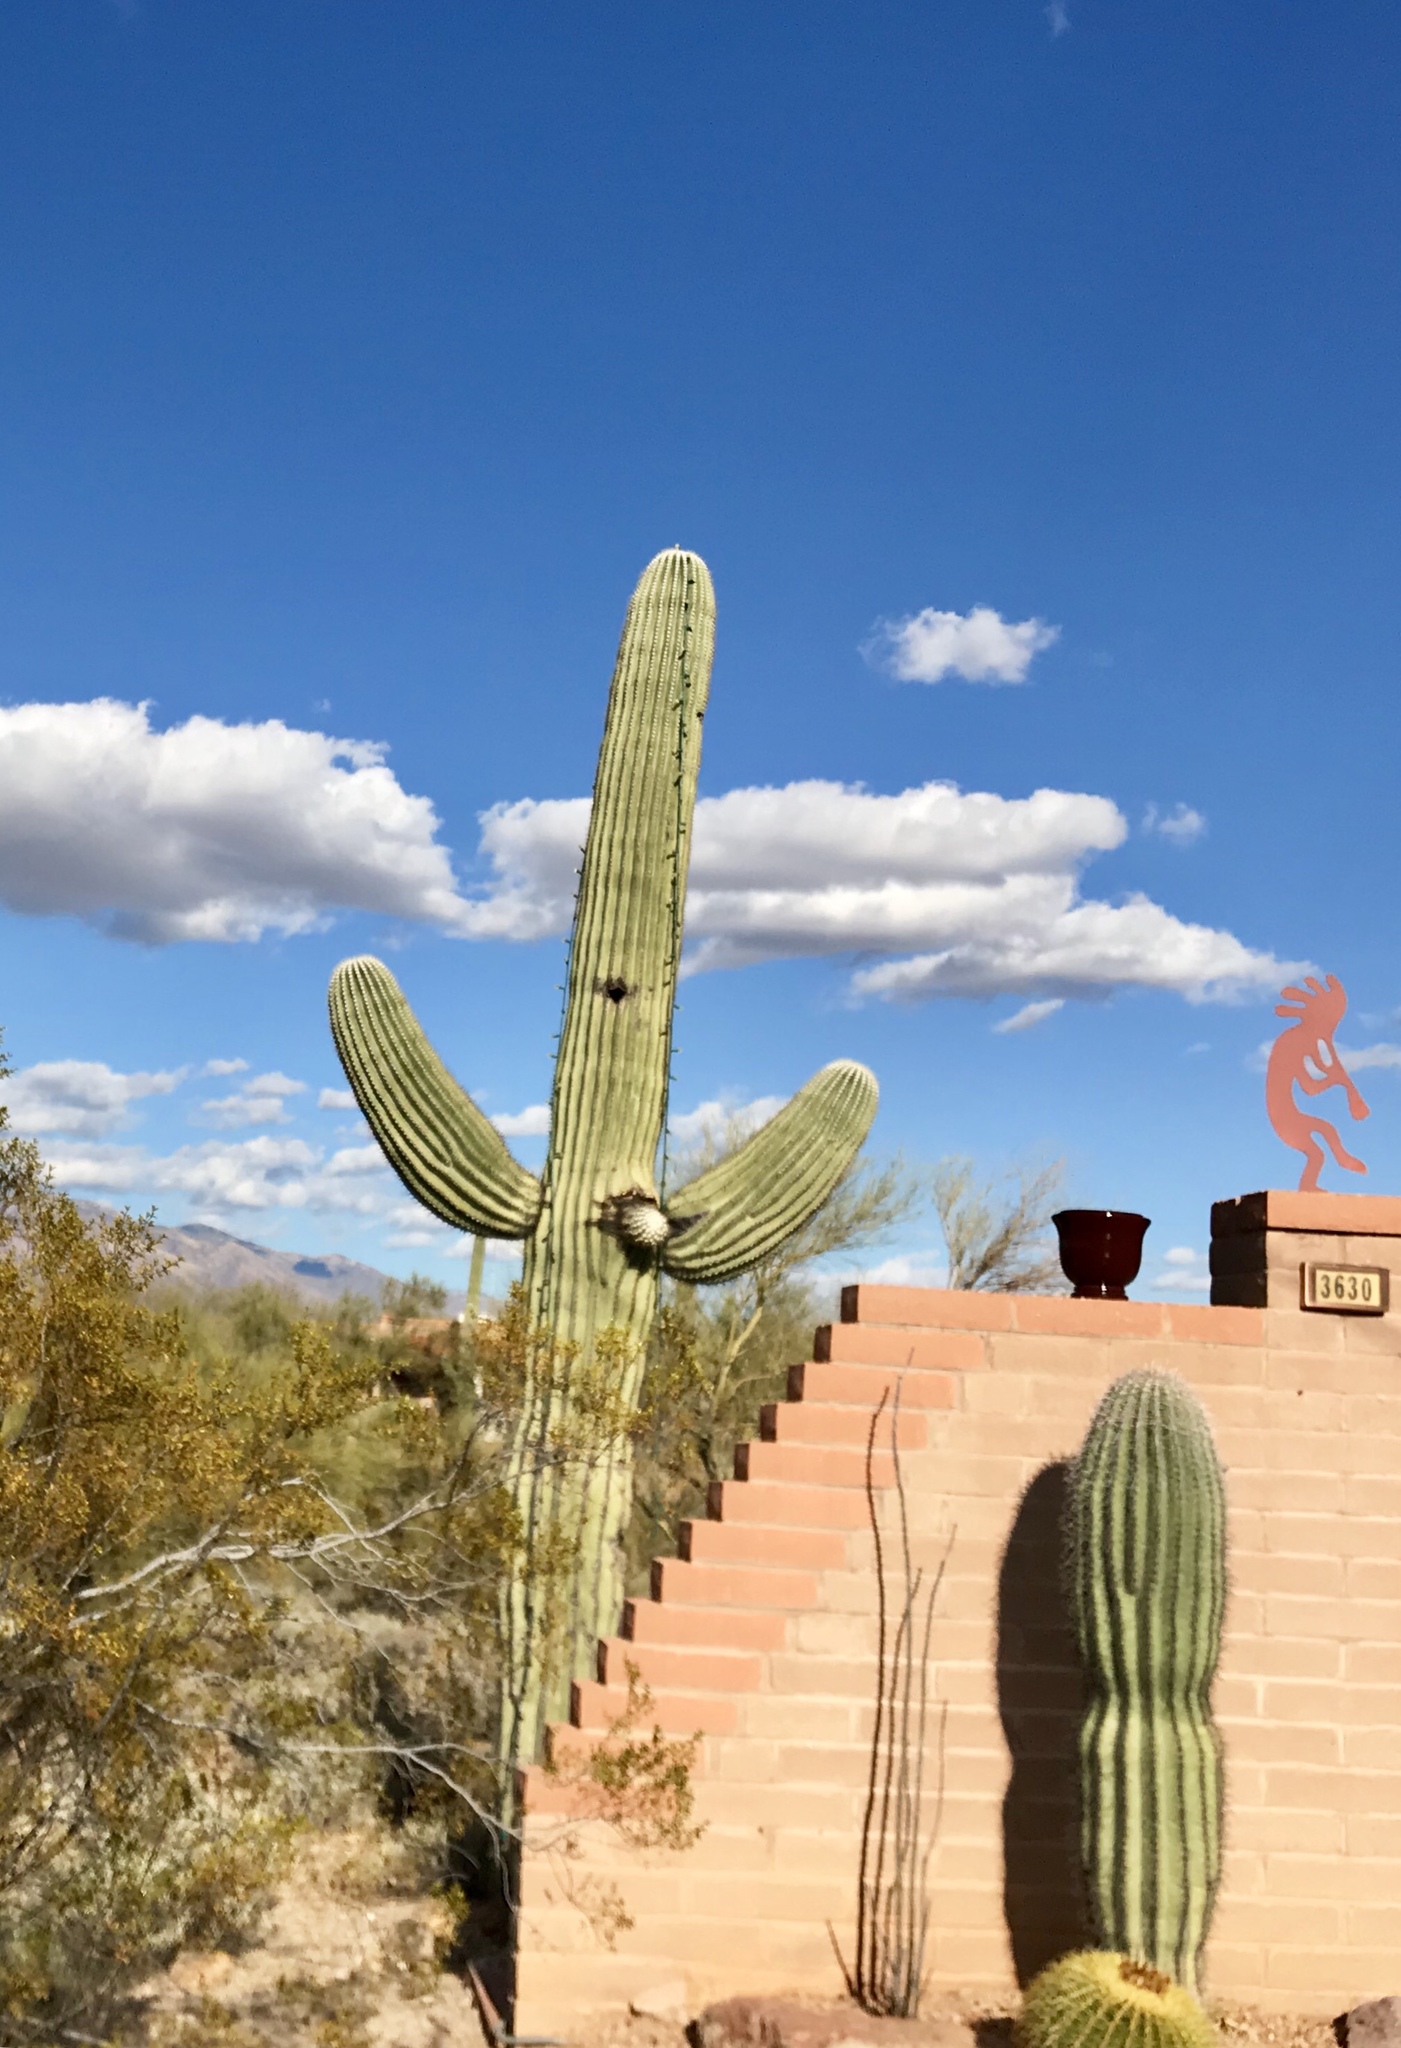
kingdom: Plantae
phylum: Tracheophyta
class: Magnoliopsida
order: Caryophyllales
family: Cactaceae
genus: Carnegiea
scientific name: Carnegiea gigantea
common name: Saguaro
